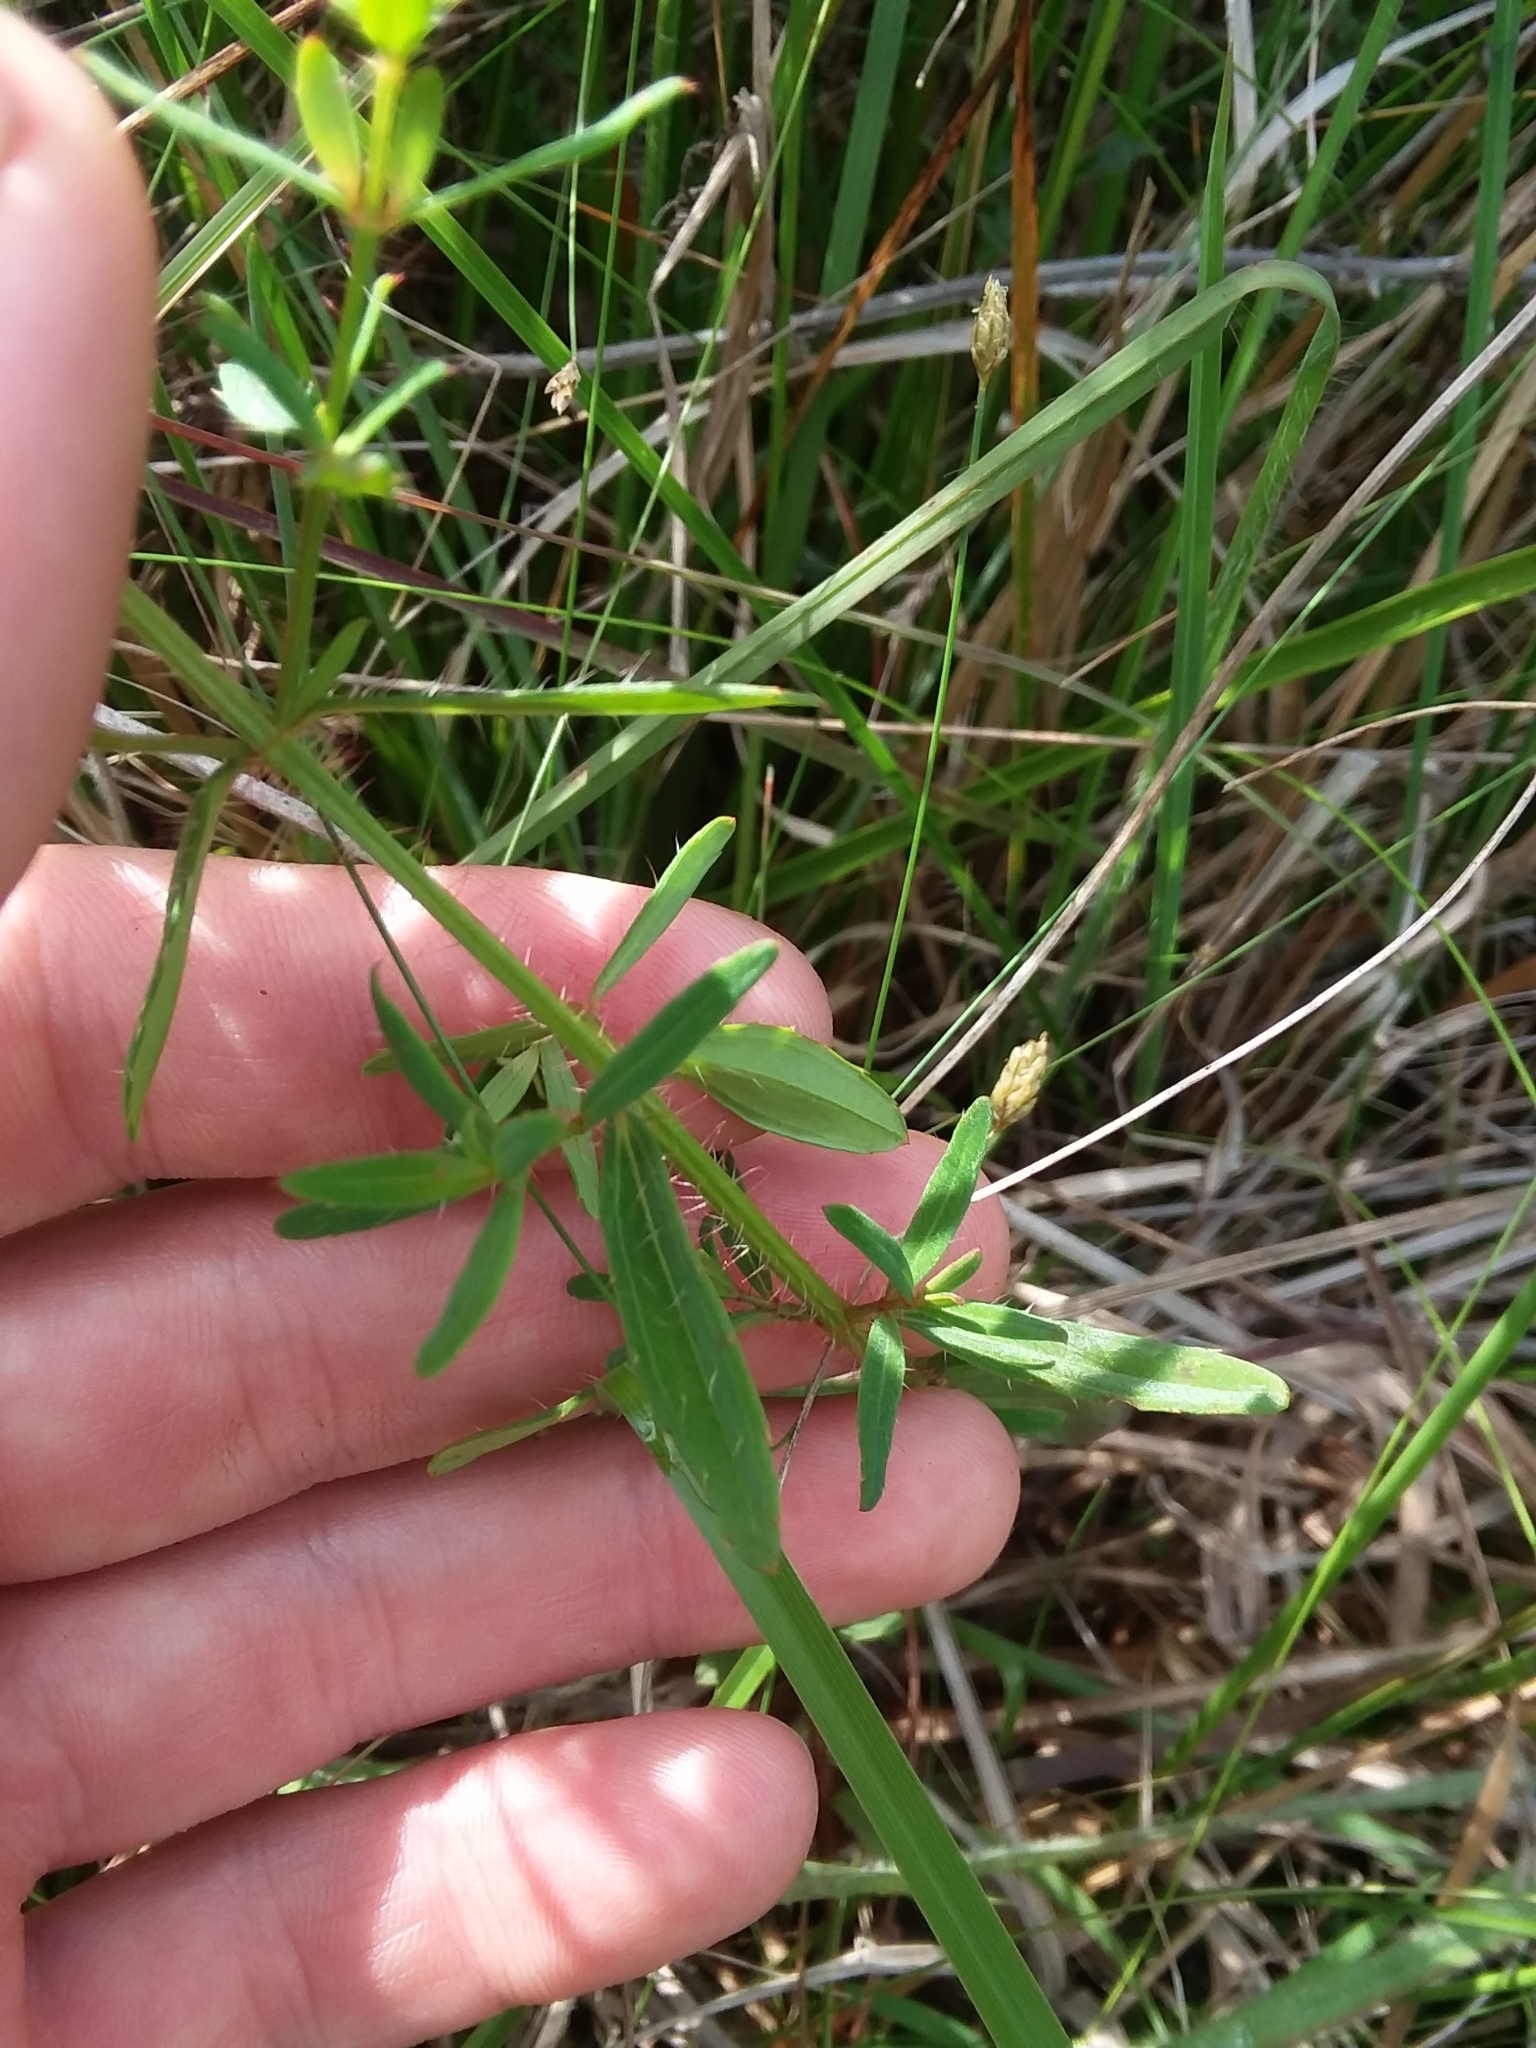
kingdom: Plantae
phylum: Tracheophyta
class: Magnoliopsida
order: Myrtales
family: Melastomataceae
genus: Rhexia
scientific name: Rhexia lutea
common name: Golden meadow-beauty
